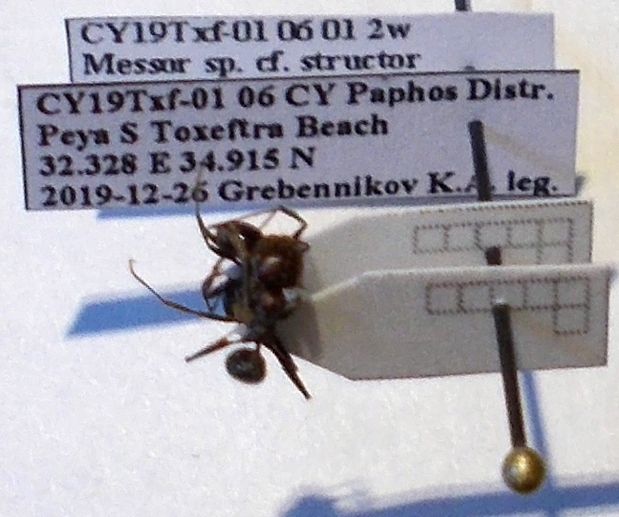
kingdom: Animalia
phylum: Arthropoda
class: Insecta
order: Hymenoptera
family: Formicidae
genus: Messor
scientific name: Messor orientalis
